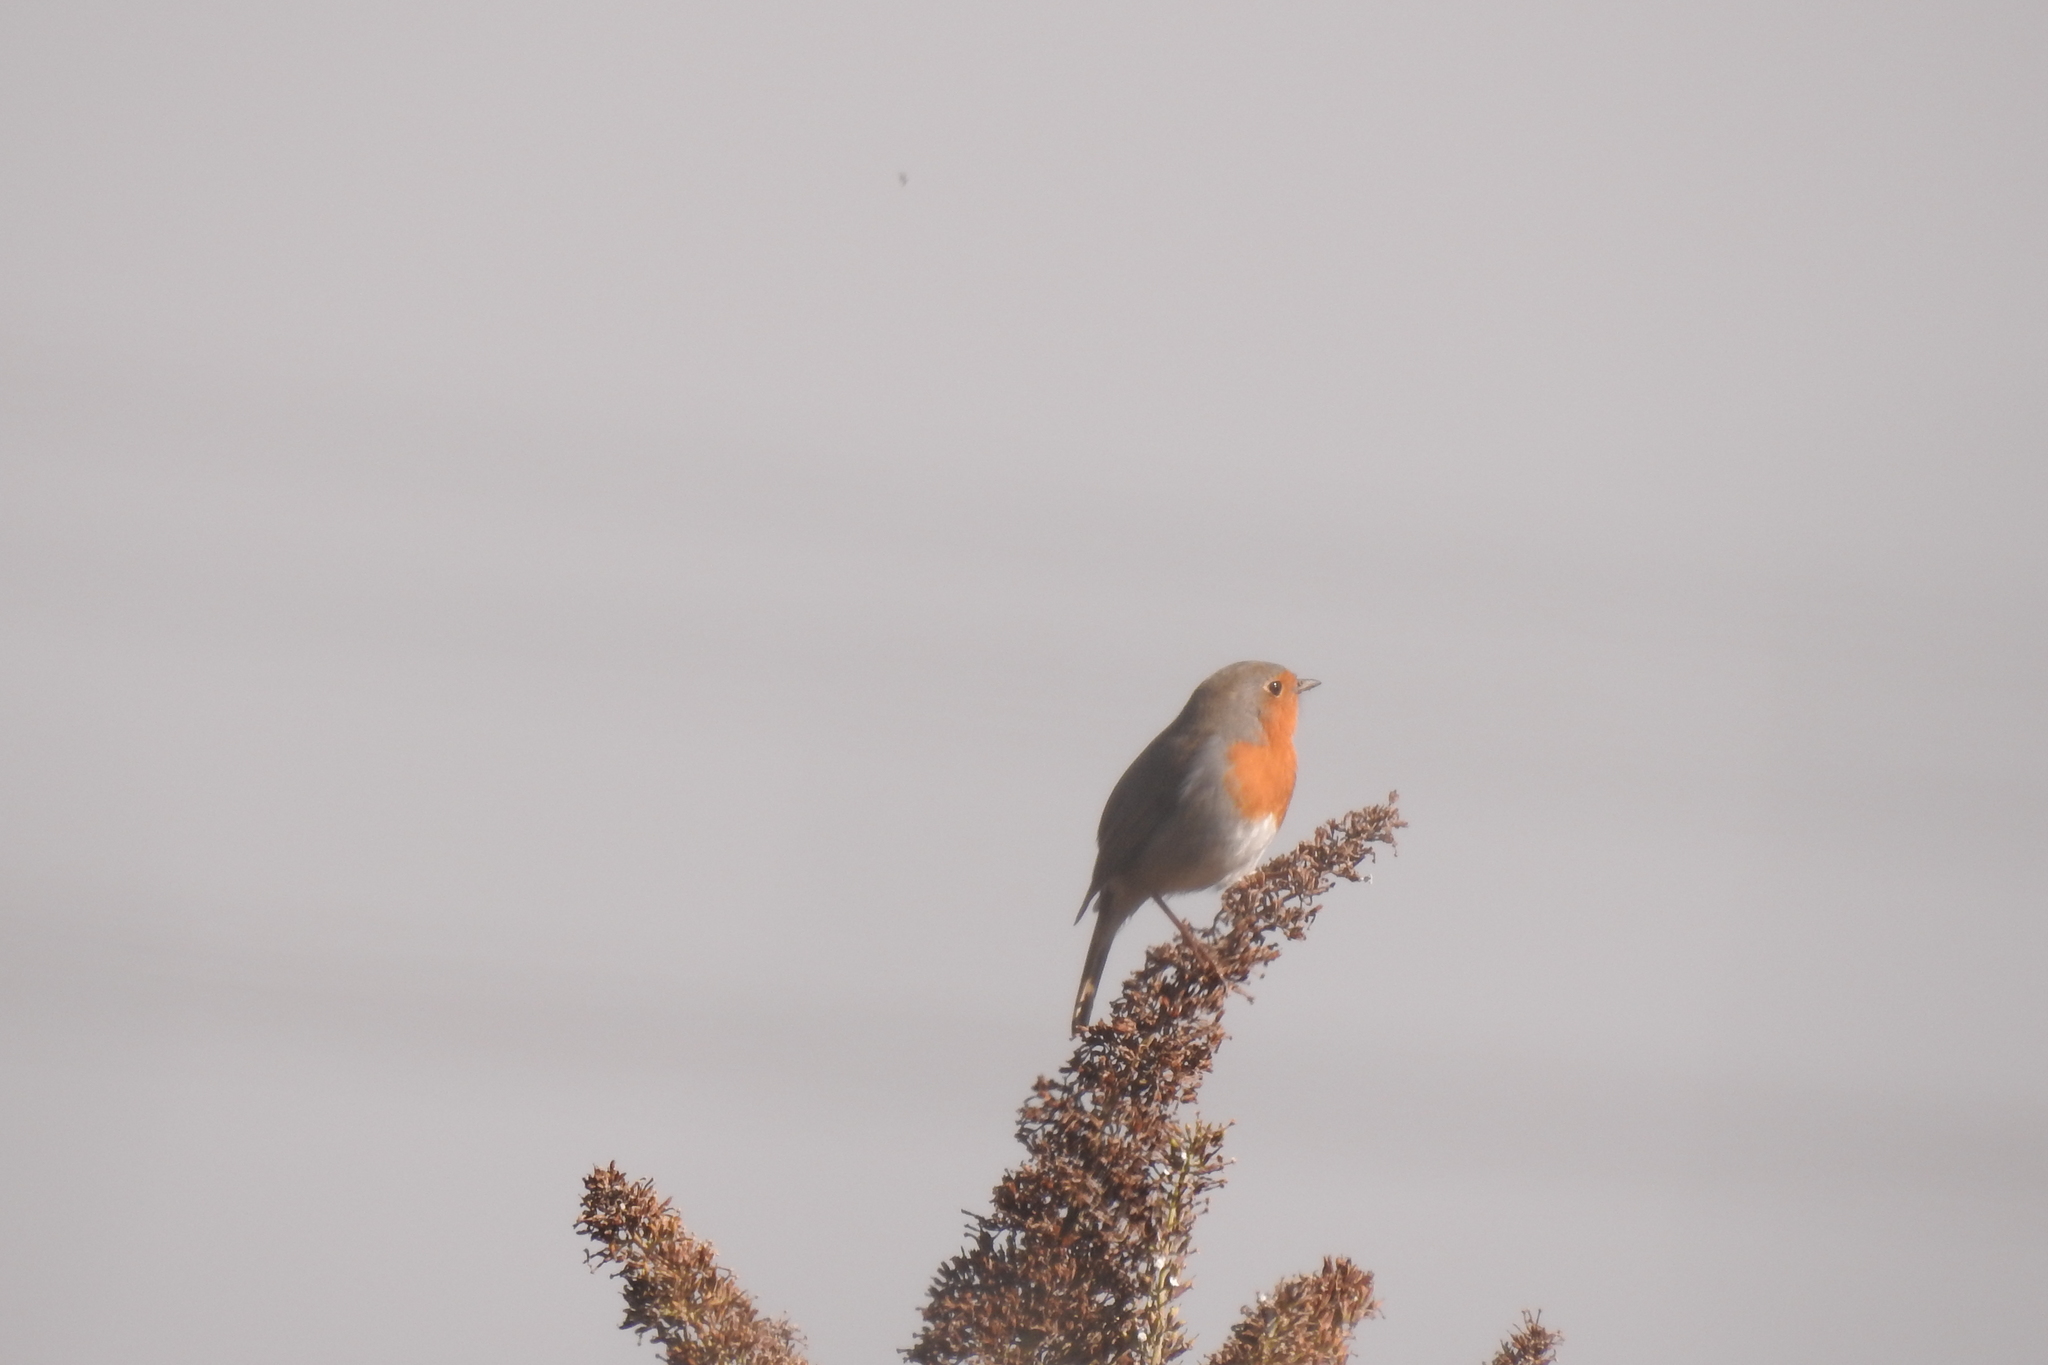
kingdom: Animalia
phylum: Chordata
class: Aves
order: Passeriformes
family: Muscicapidae
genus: Erithacus
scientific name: Erithacus rubecula
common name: European robin
